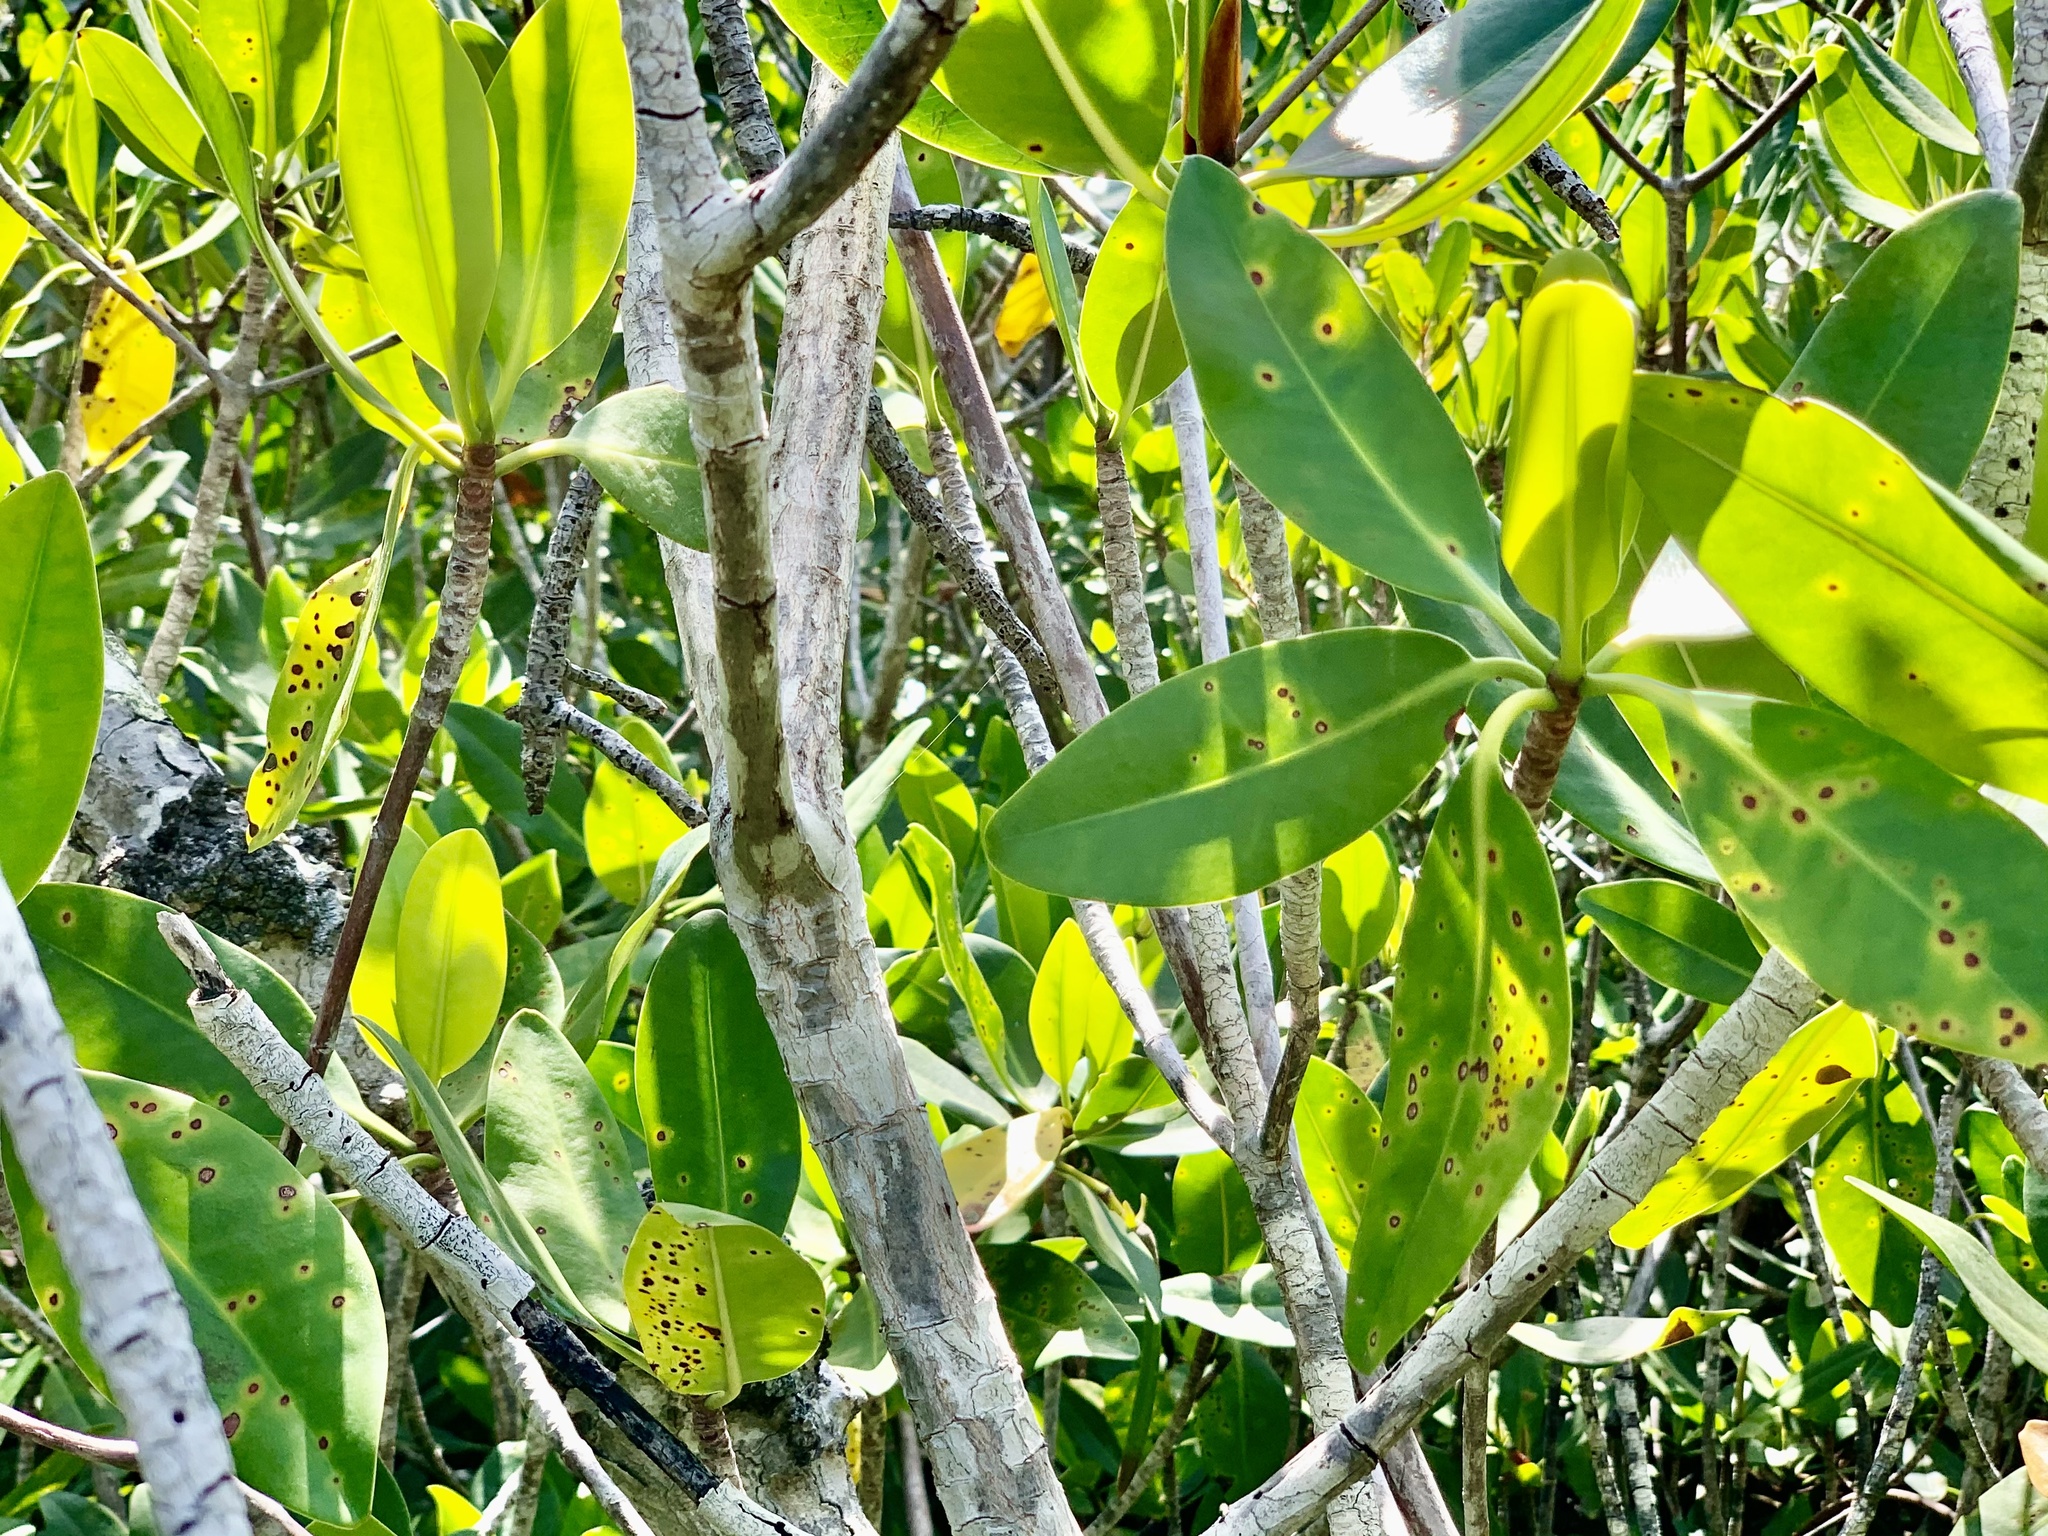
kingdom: Plantae
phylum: Tracheophyta
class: Magnoliopsida
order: Malpighiales
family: Rhizophoraceae
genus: Rhizophora
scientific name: Rhizophora mangle
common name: Red mangrove
